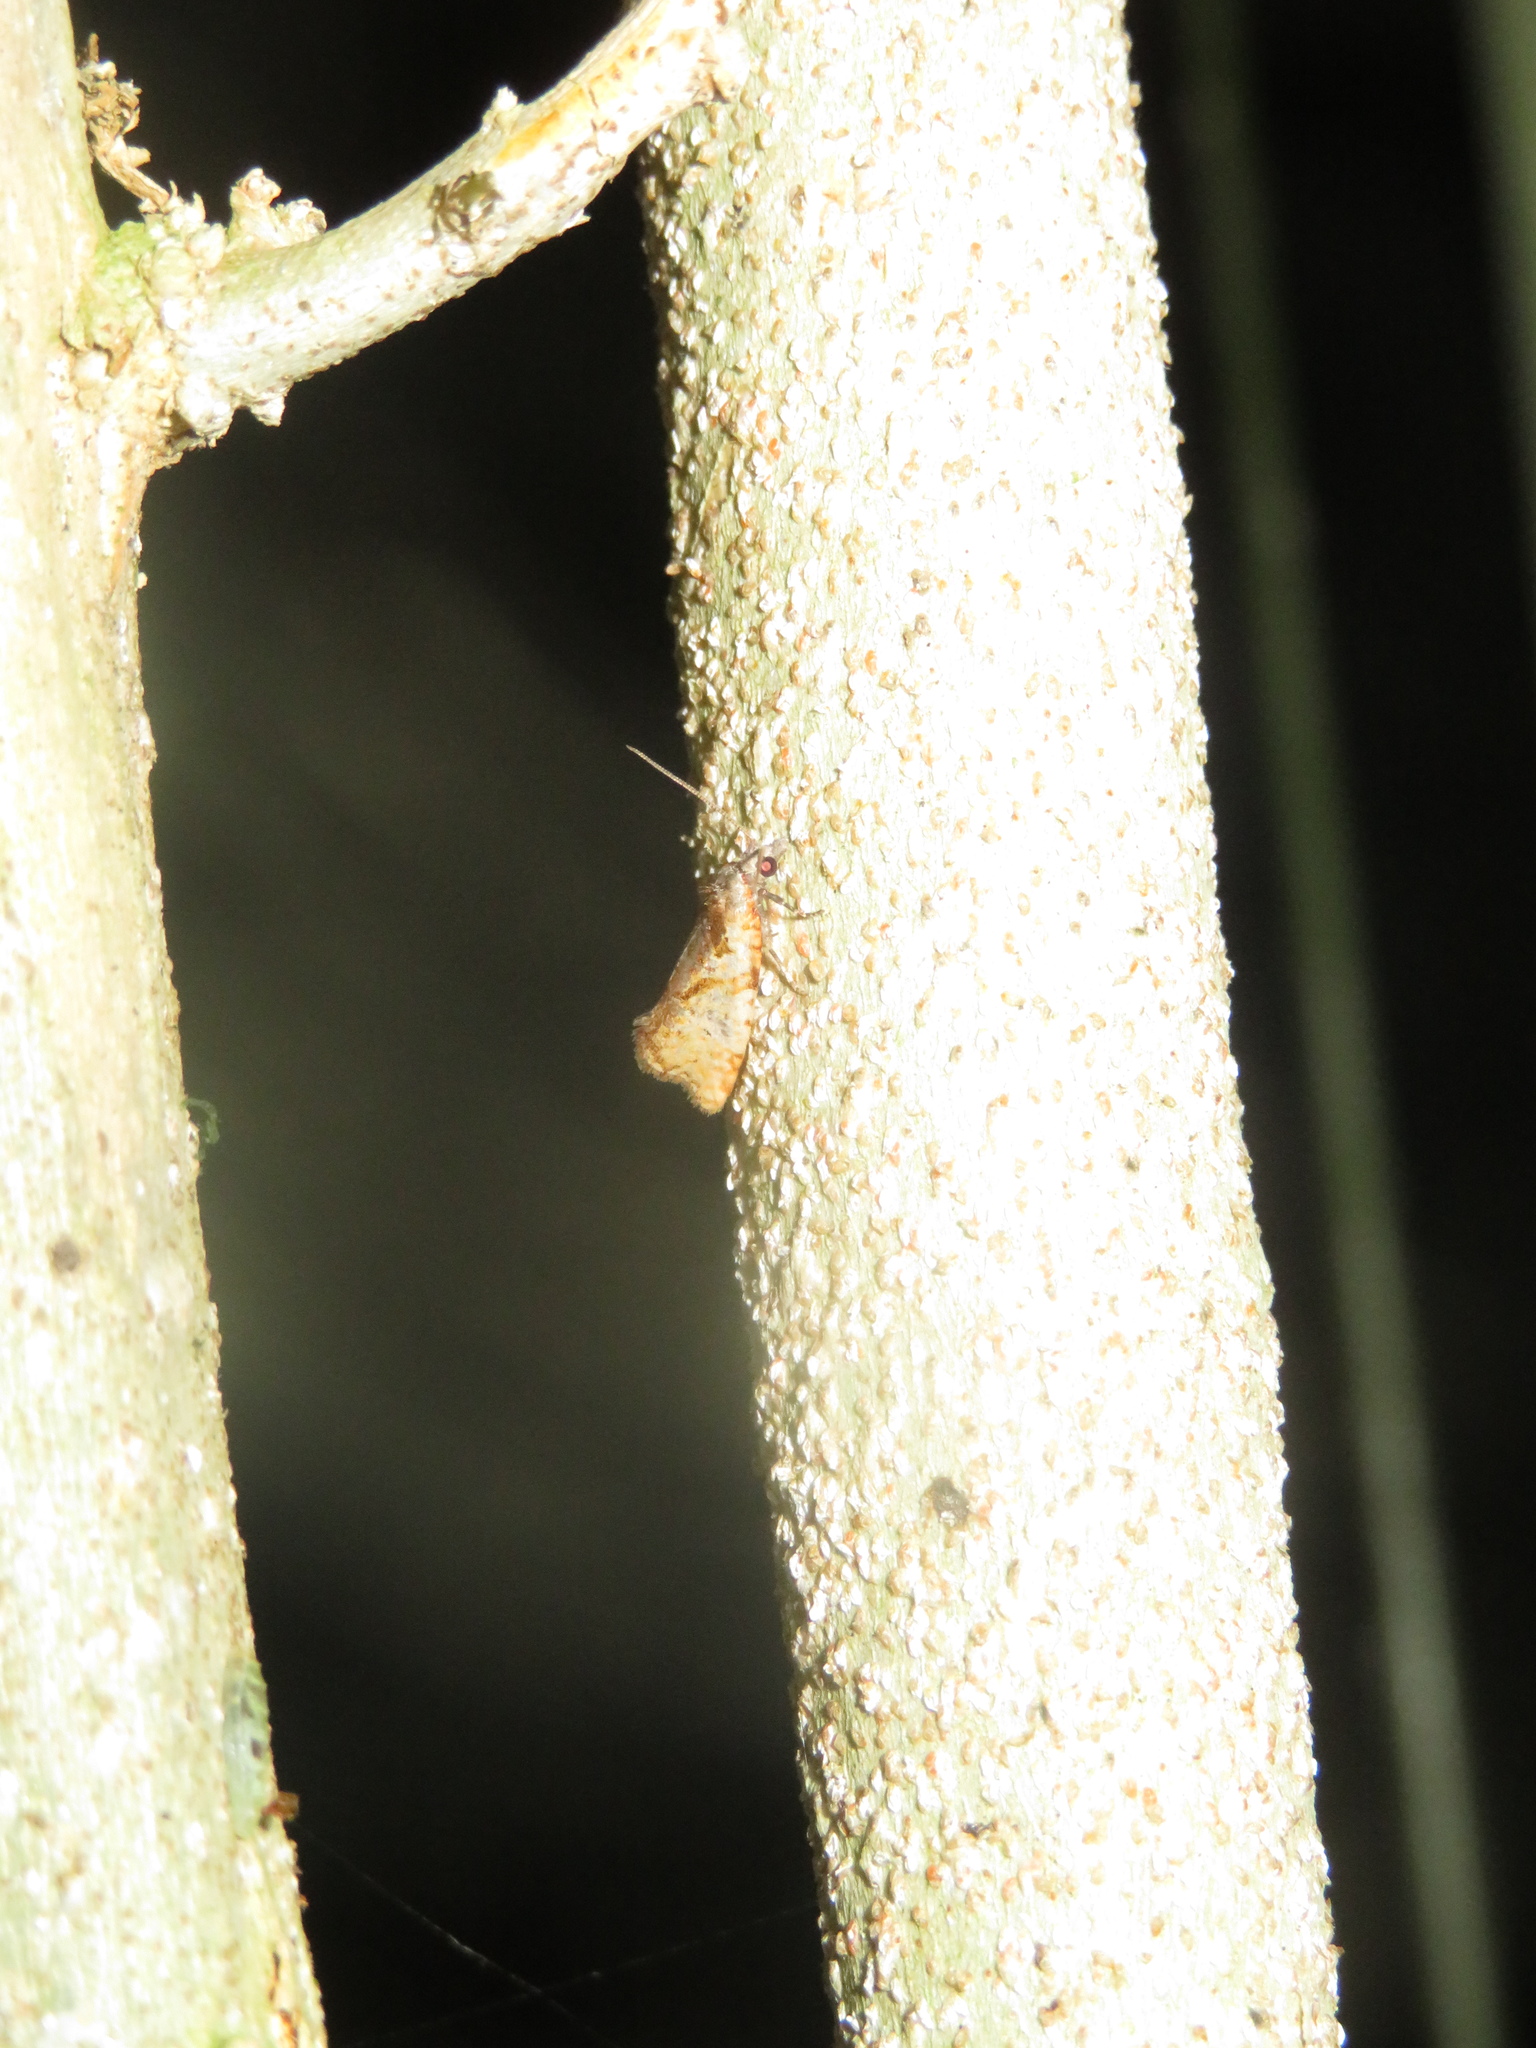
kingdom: Animalia
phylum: Arthropoda
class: Insecta
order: Lepidoptera
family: Tortricidae
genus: Pyrgotis
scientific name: Pyrgotis plagiatana
